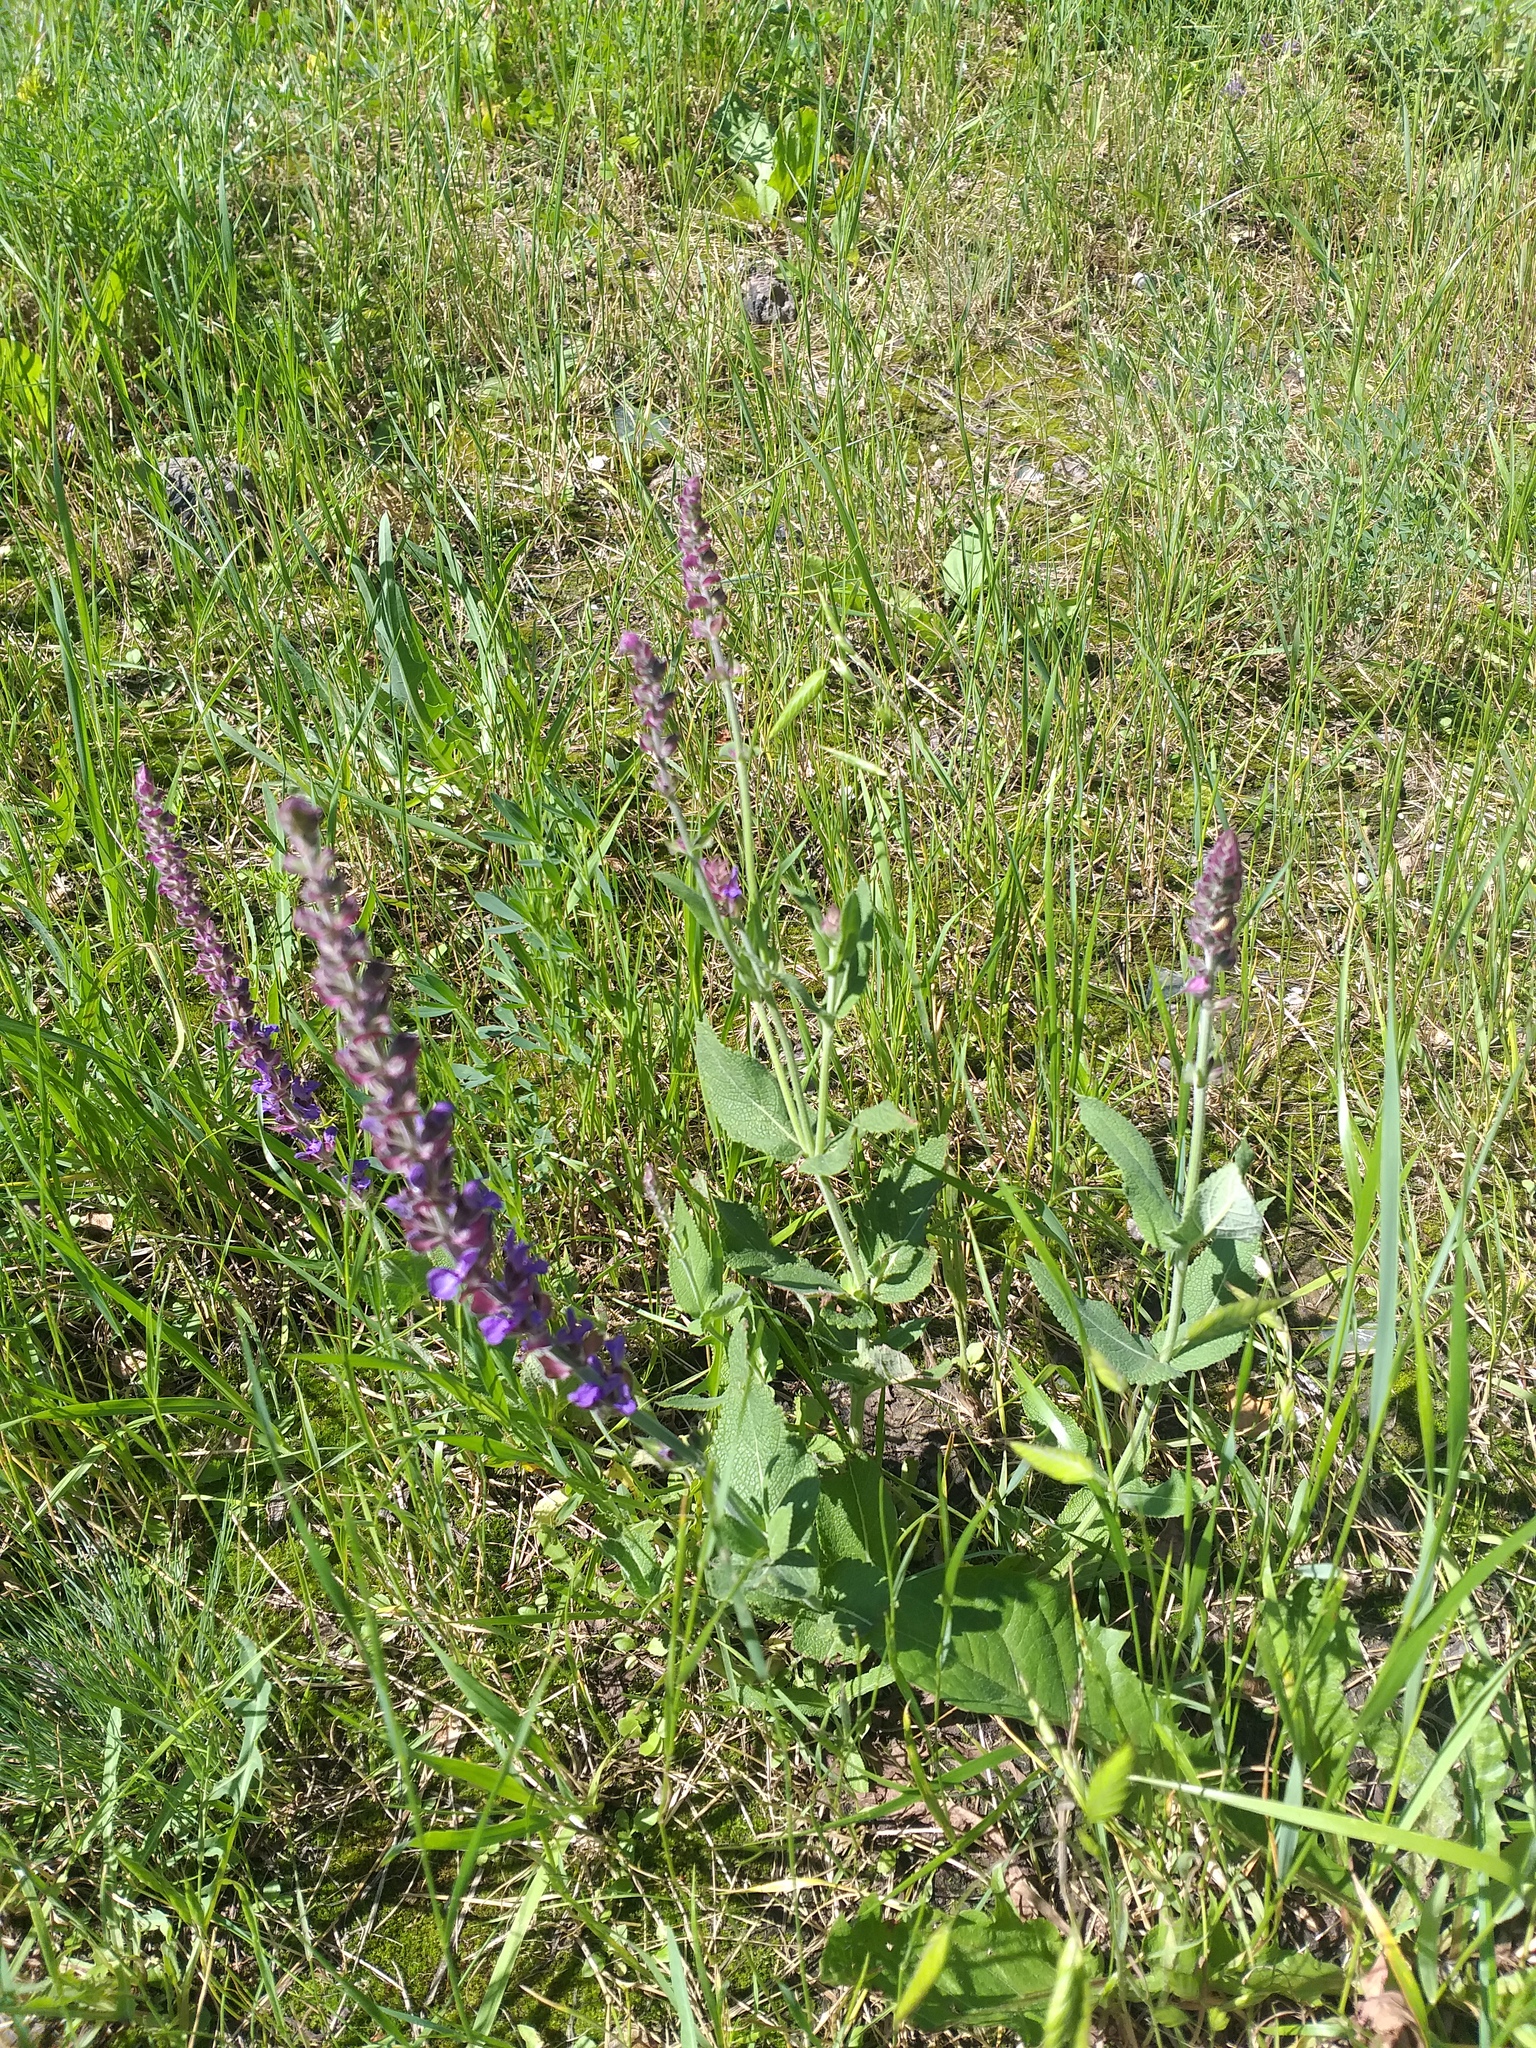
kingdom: Plantae
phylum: Tracheophyta
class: Magnoliopsida
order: Lamiales
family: Lamiaceae
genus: Salvia
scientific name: Salvia nemorosa
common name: Balkan clary
